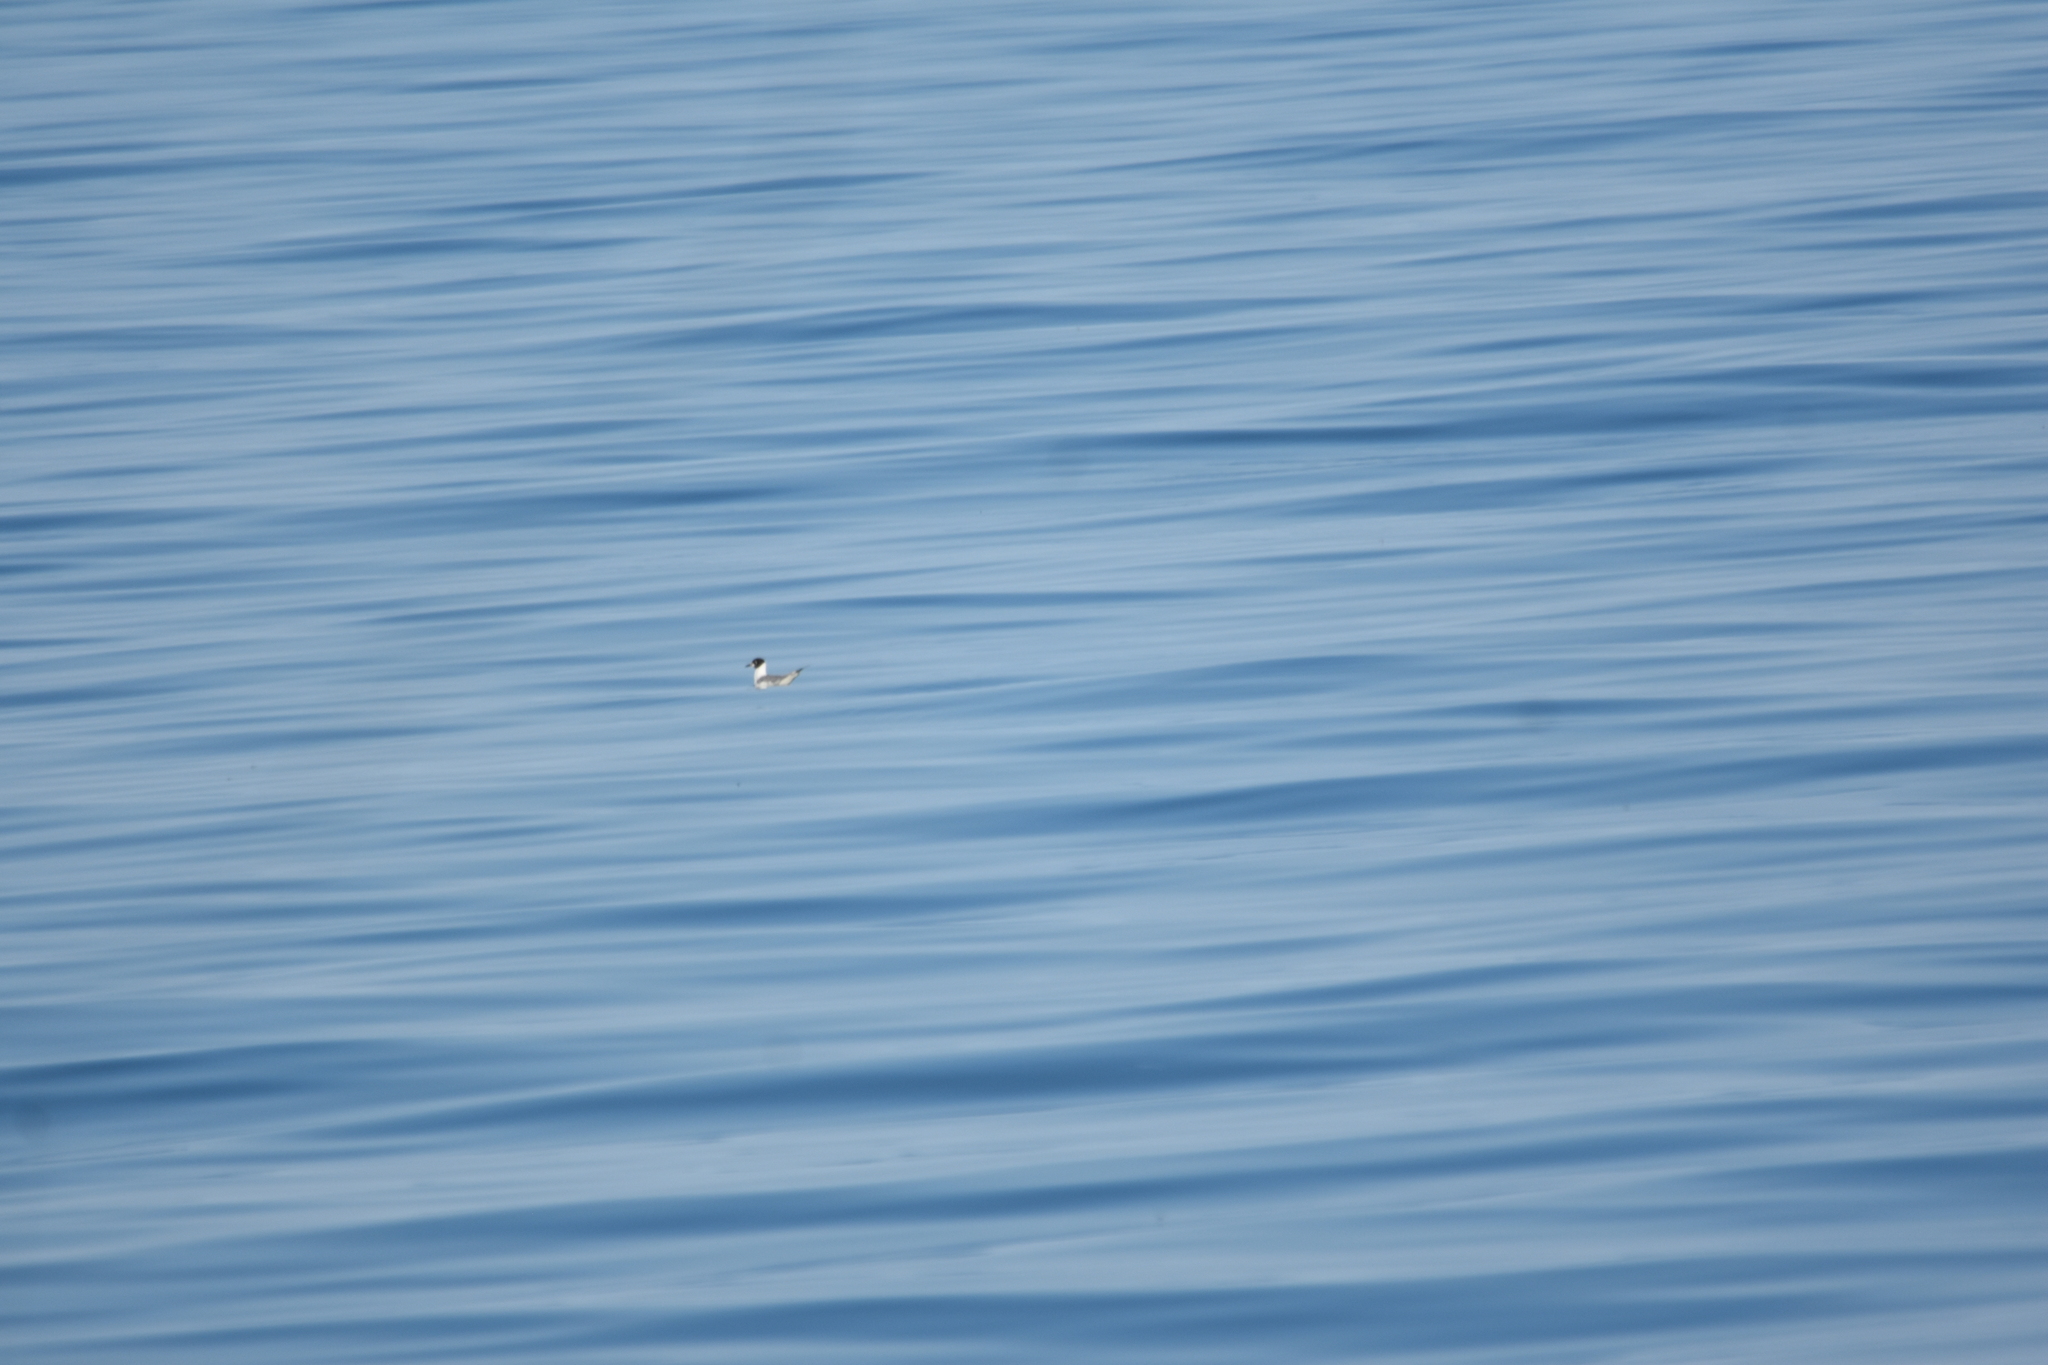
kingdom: Animalia
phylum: Chordata
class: Aves
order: Charadriiformes
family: Laridae
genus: Chroicocephalus
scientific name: Chroicocephalus philadelphia
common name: Bonaparte's gull
